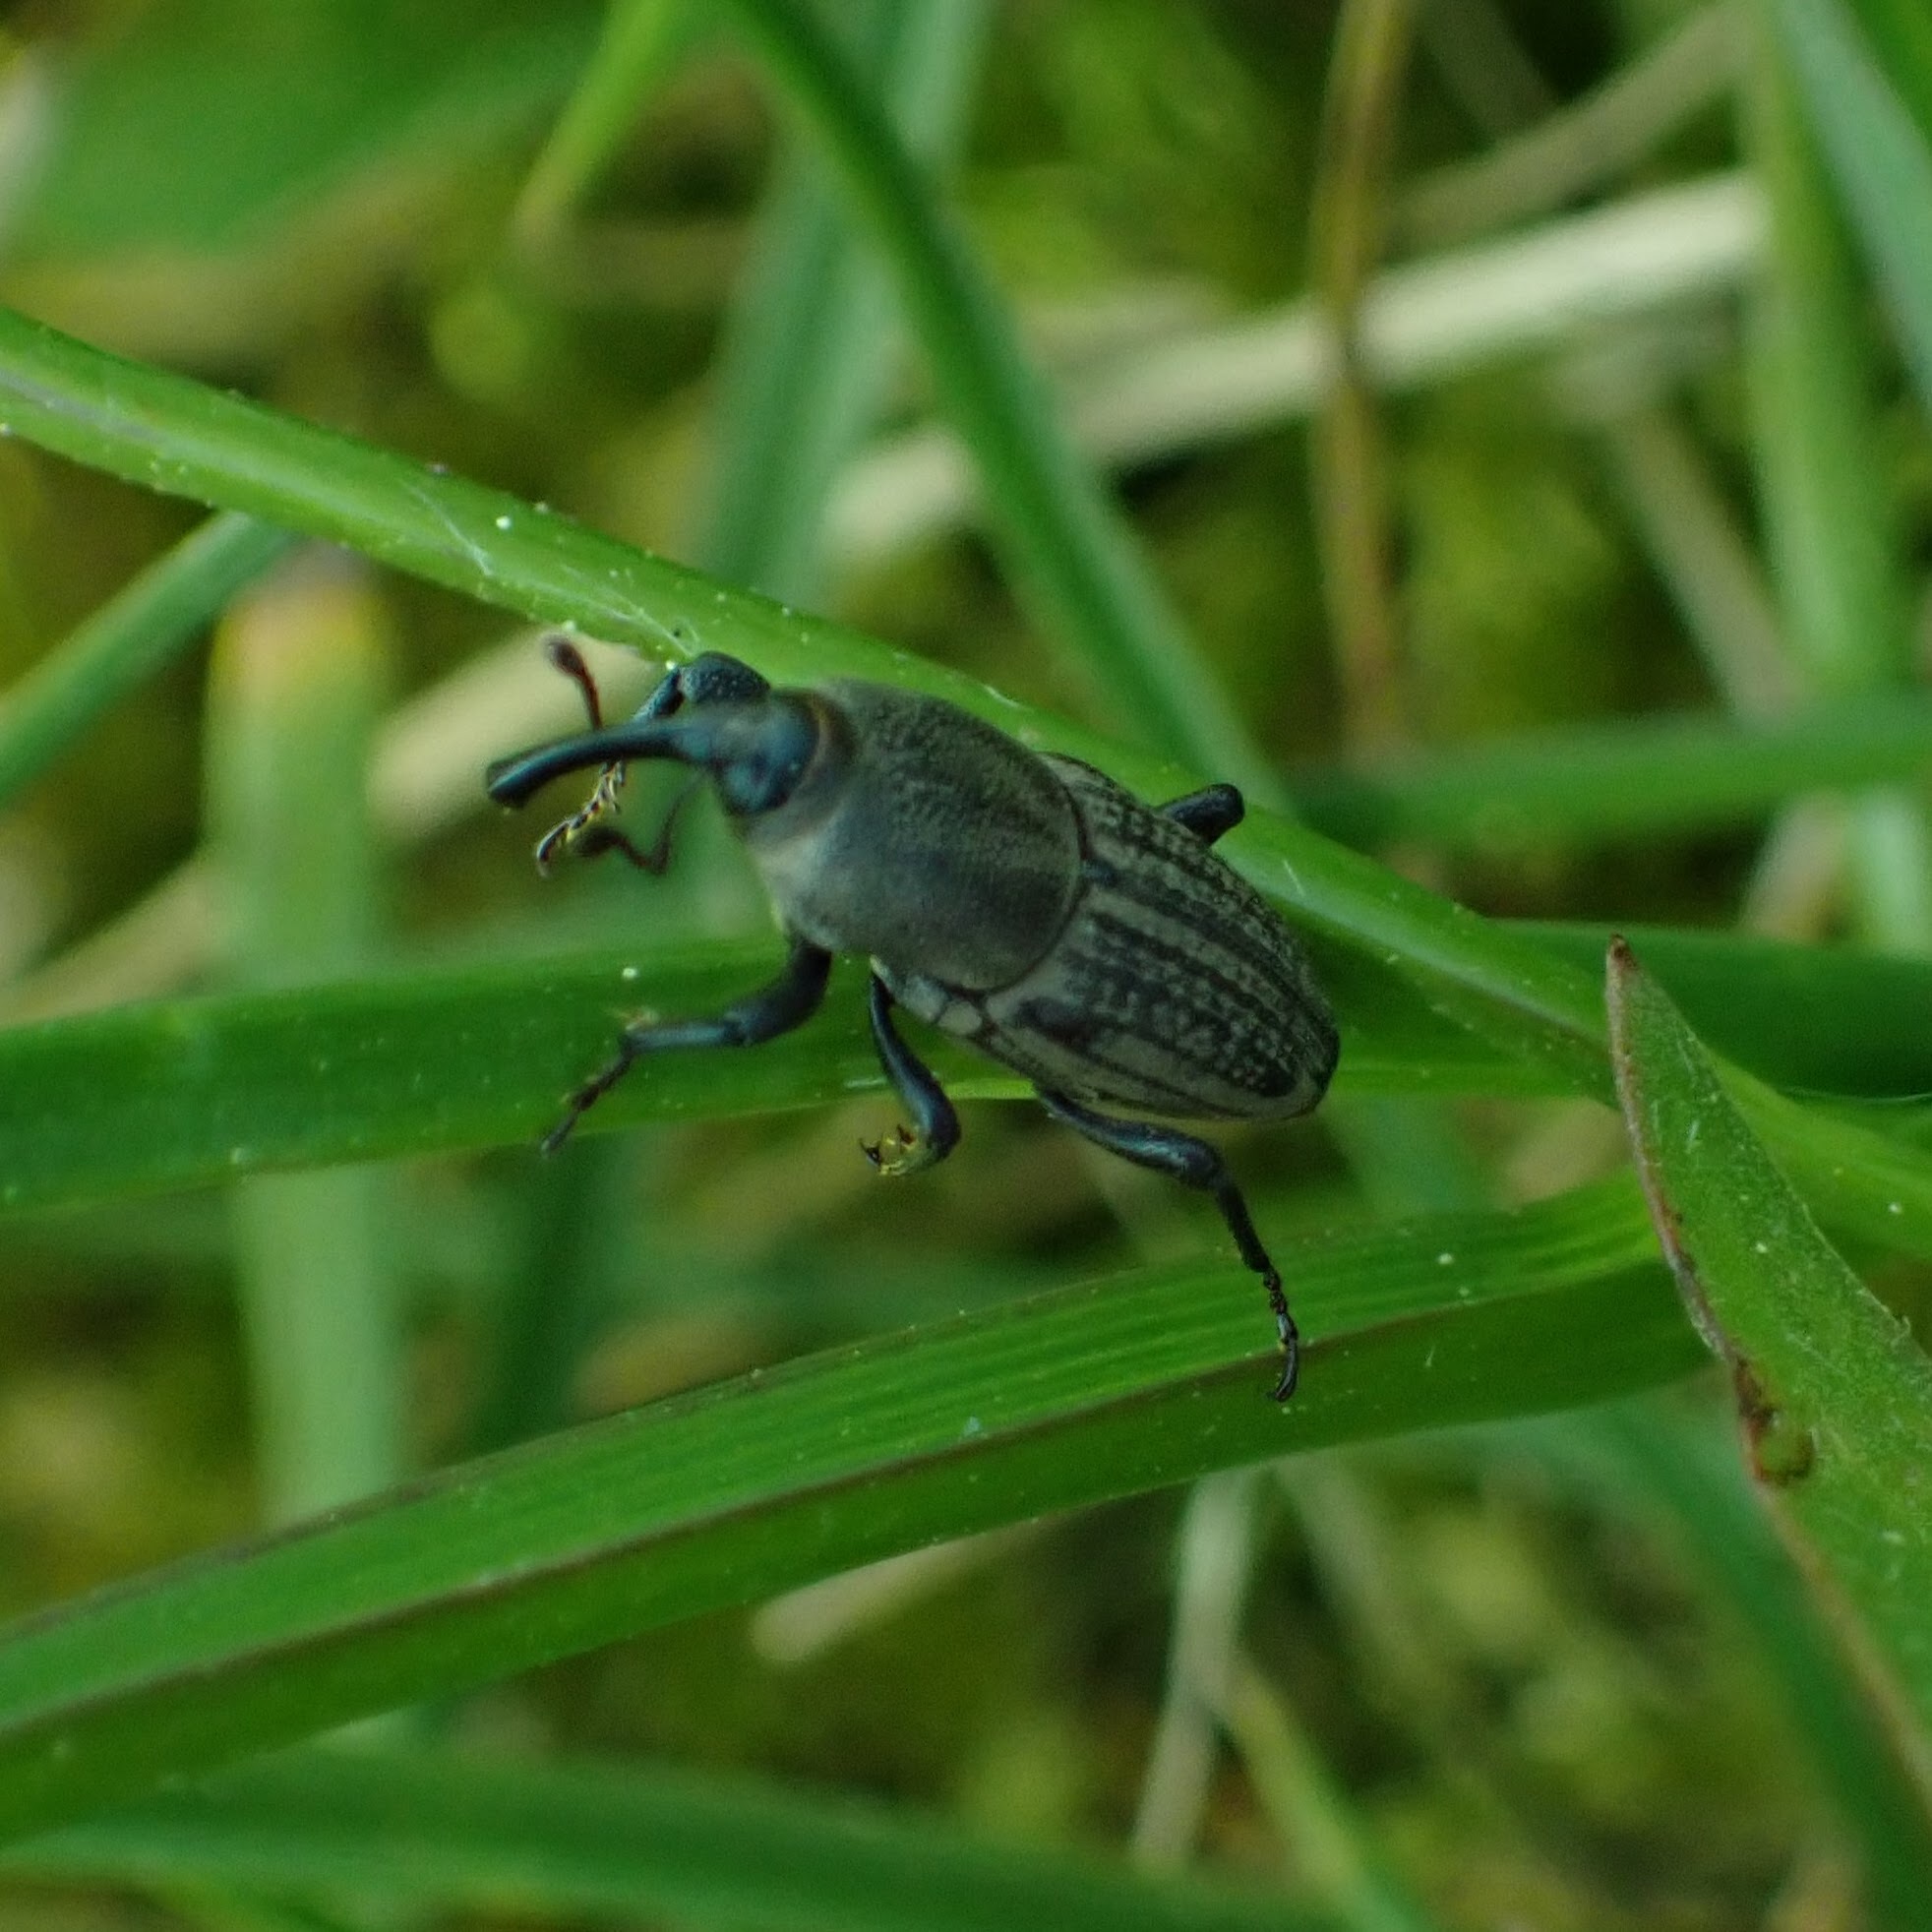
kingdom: Animalia
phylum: Arthropoda
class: Insecta
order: Coleoptera
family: Dryophthoridae
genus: Sphenophorus
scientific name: Sphenophorus interstitialis
